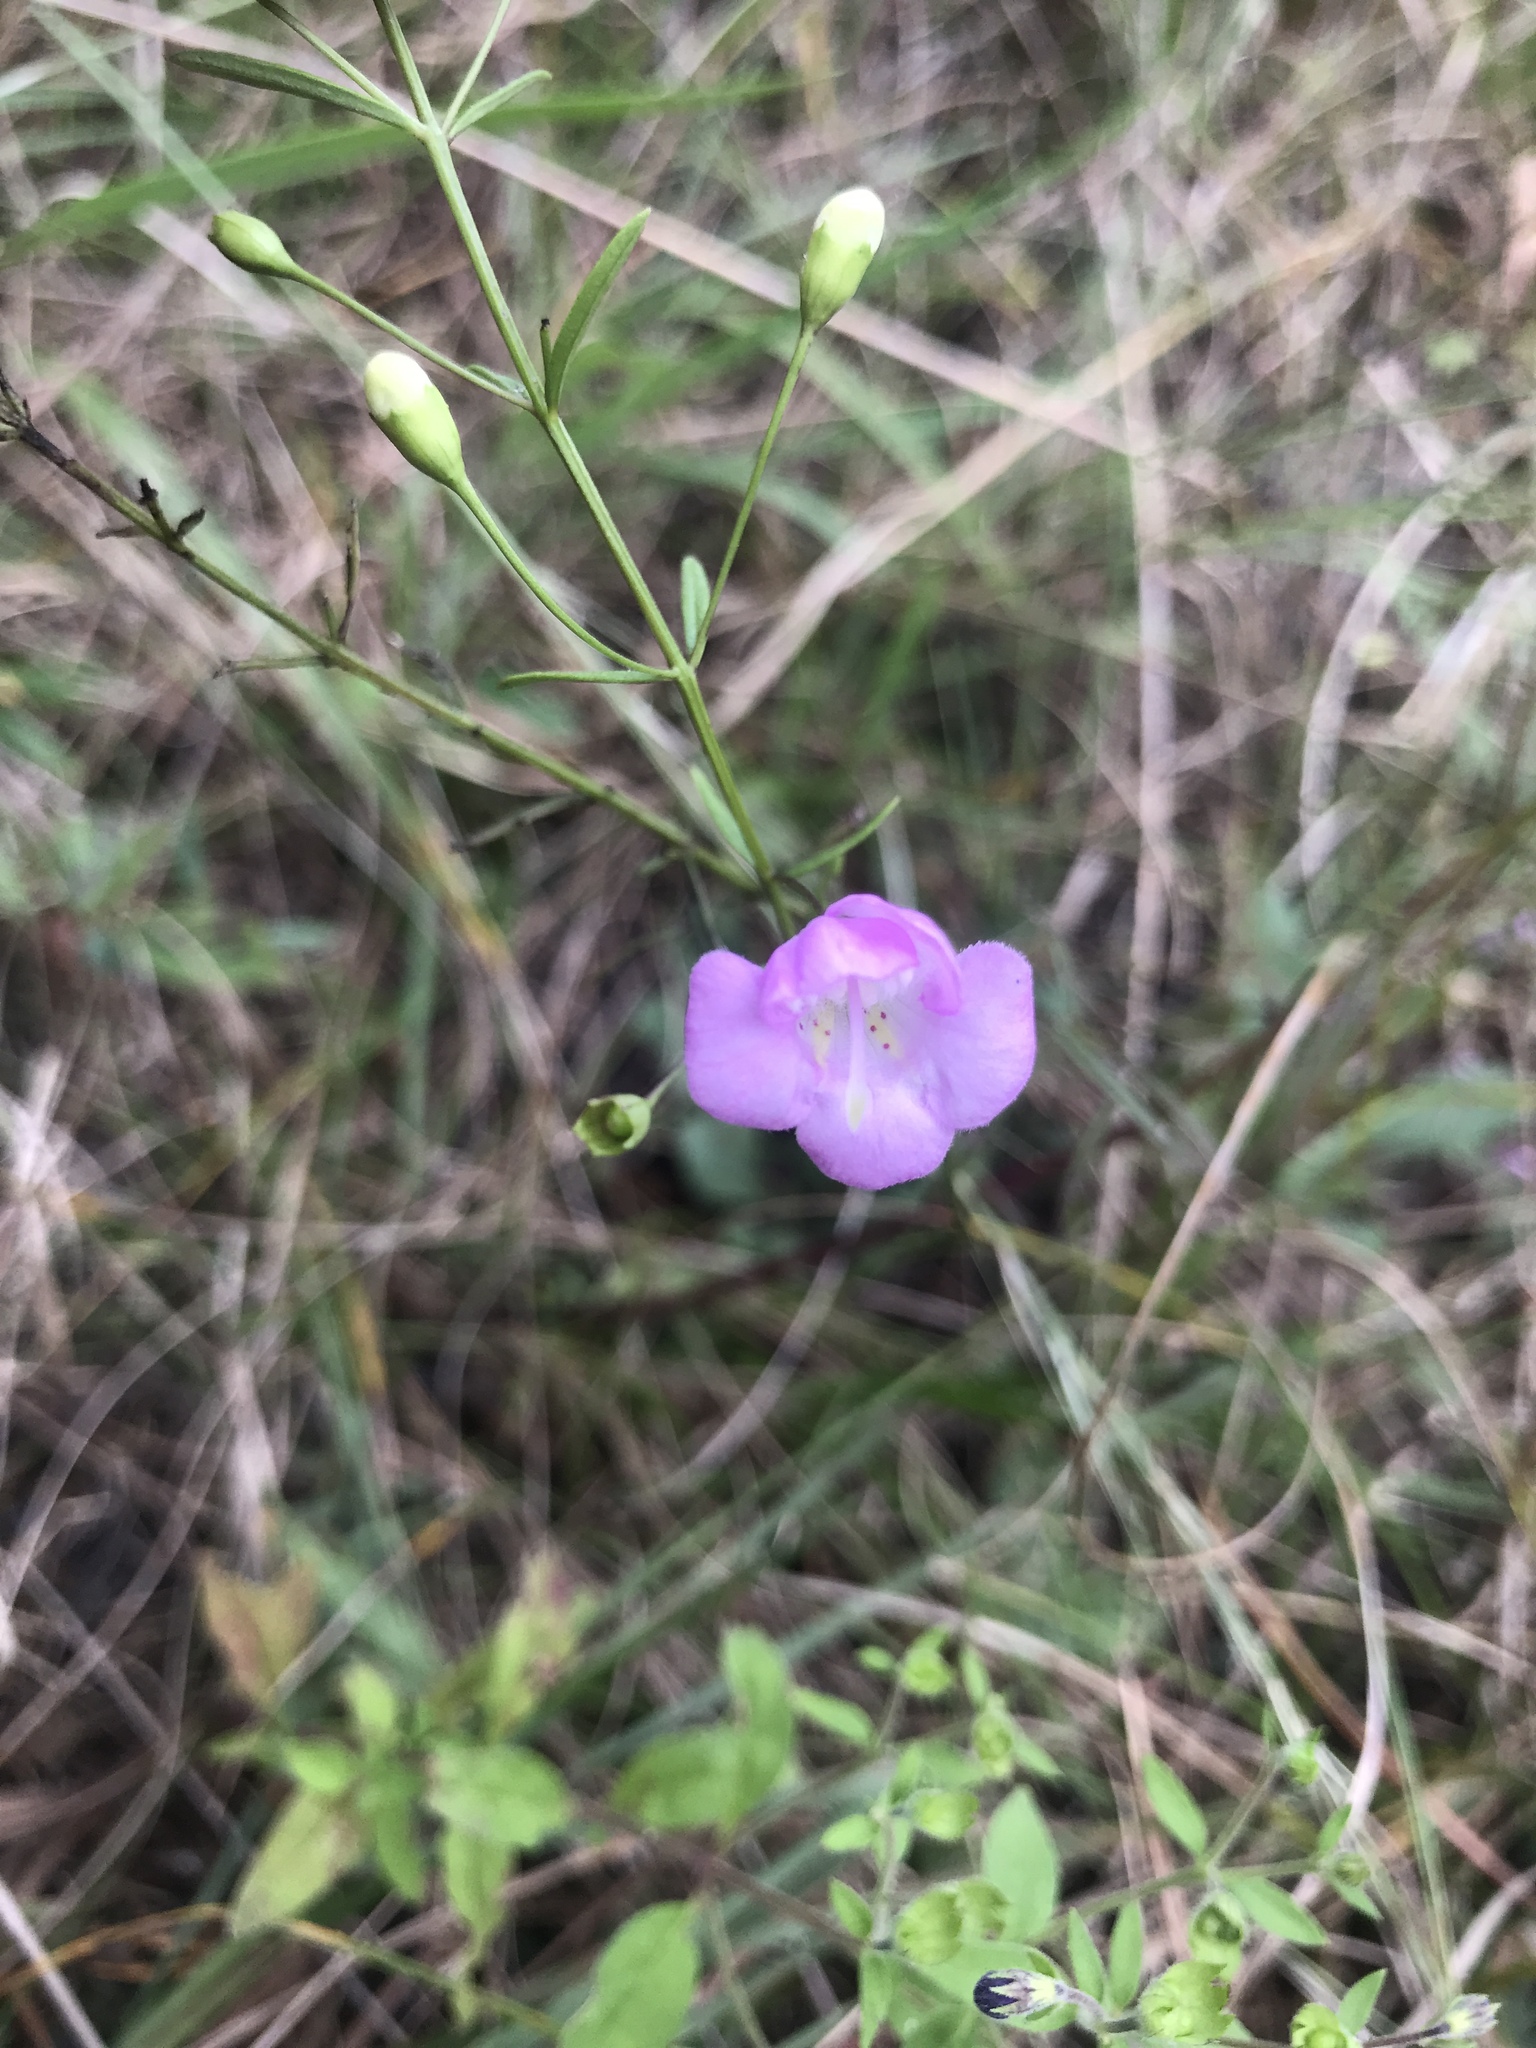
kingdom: Plantae
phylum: Tracheophyta
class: Magnoliopsida
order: Lamiales
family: Orobanchaceae
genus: Agalinis
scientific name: Agalinis tenuifolia
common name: Slender agalinis
